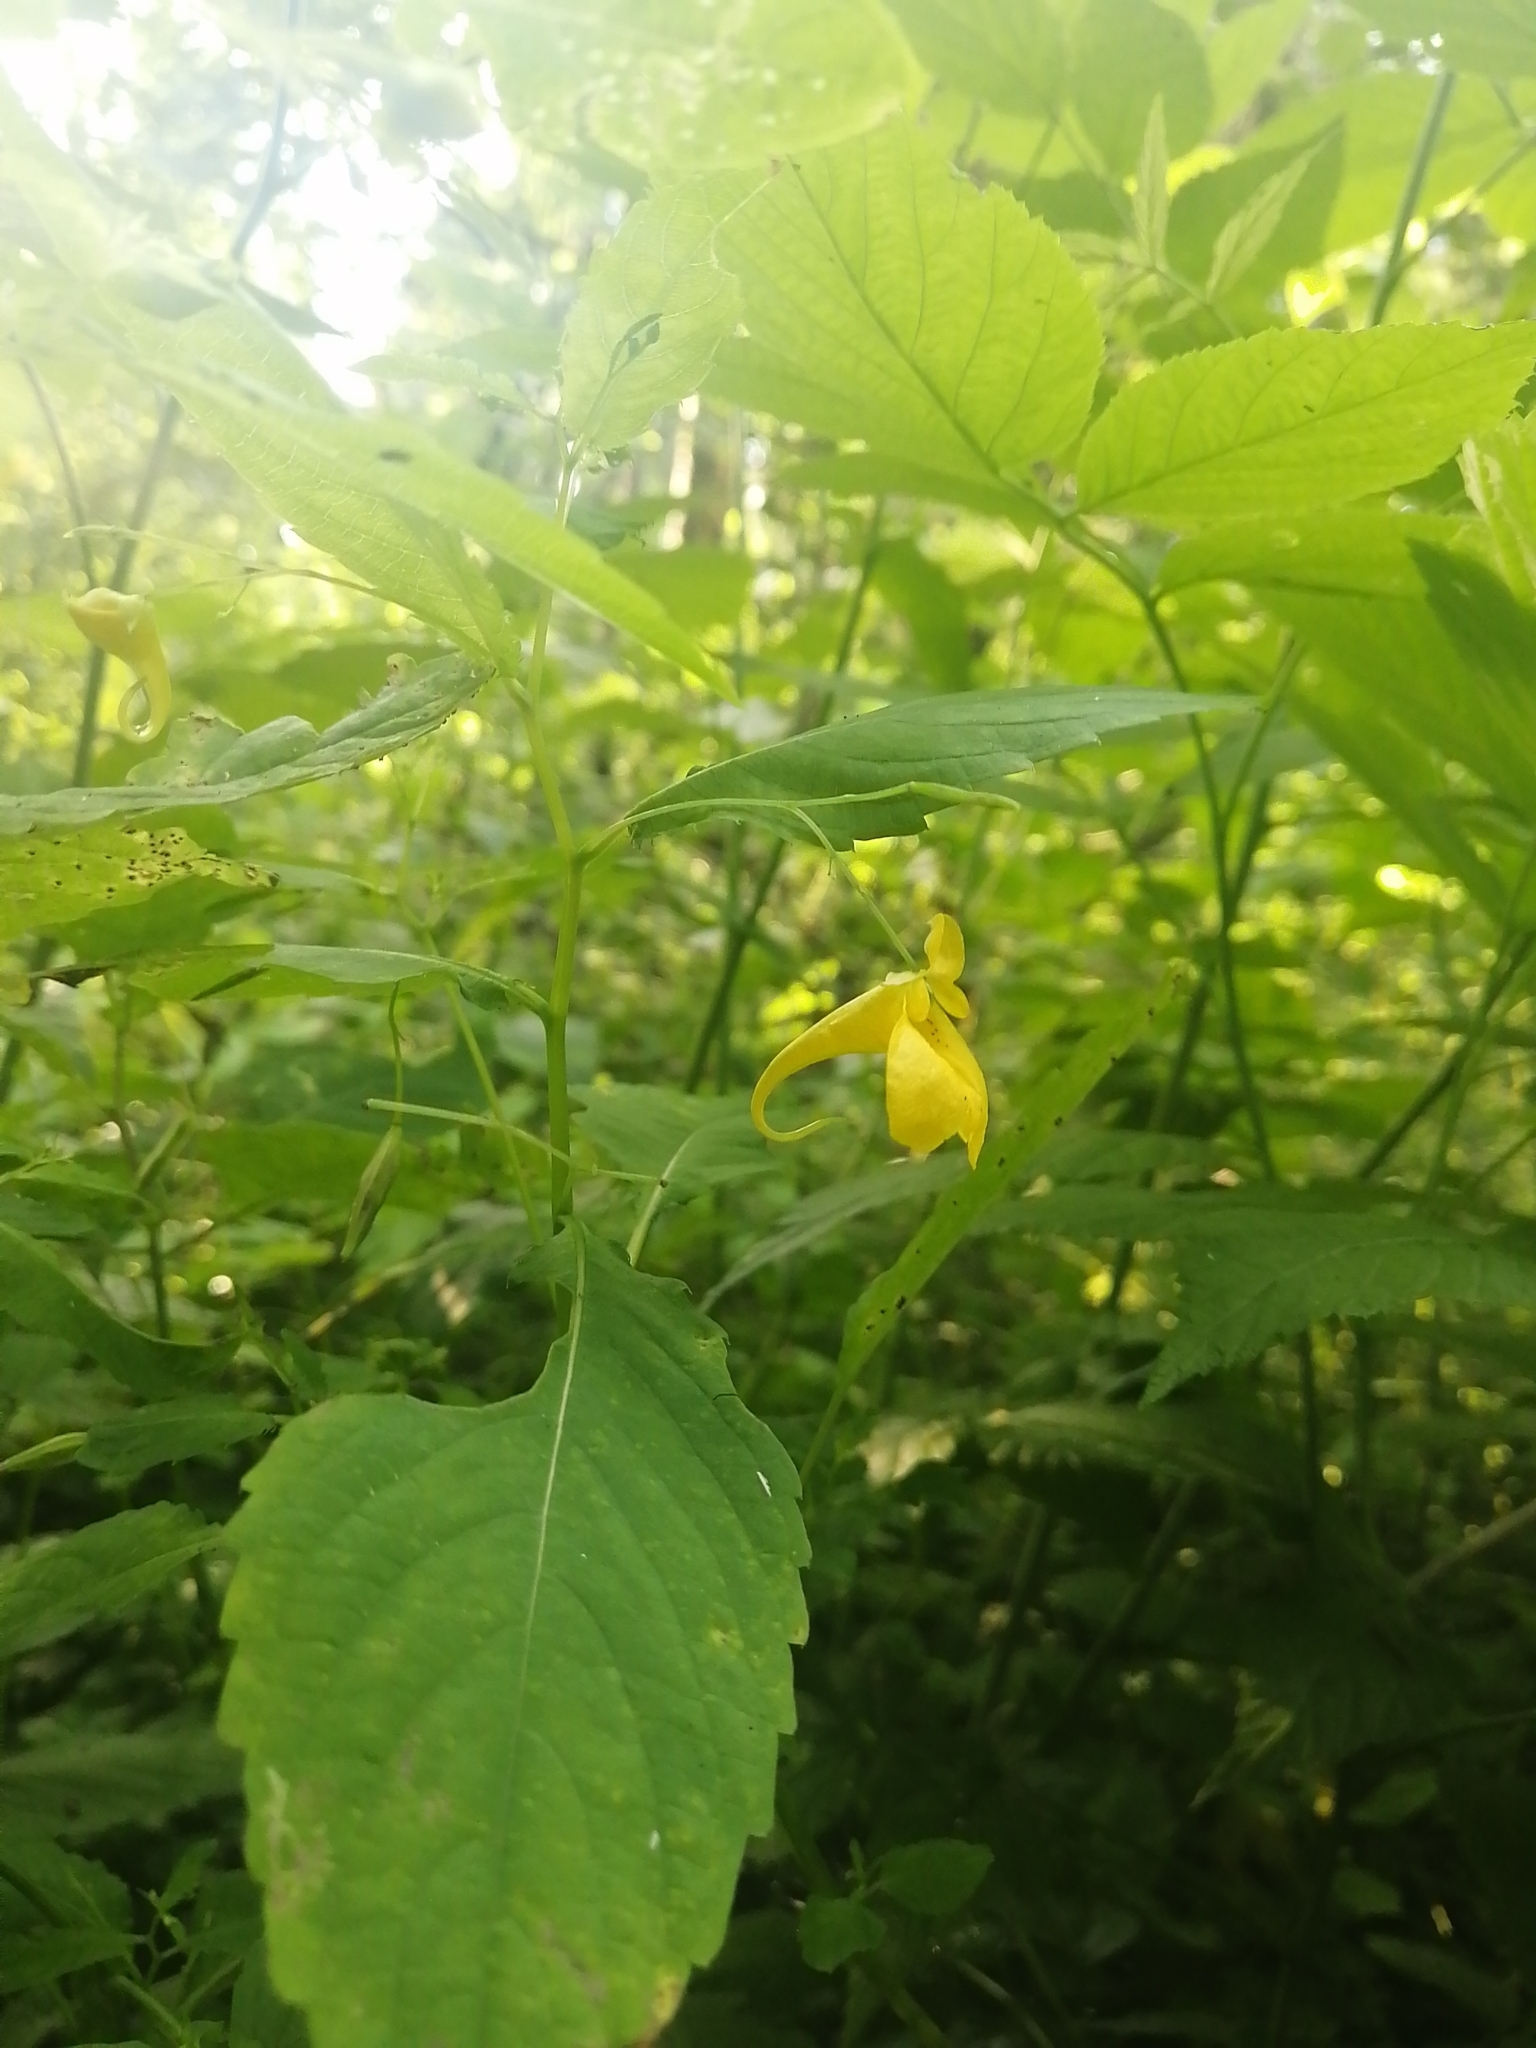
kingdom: Plantae
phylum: Tracheophyta
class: Magnoliopsida
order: Ericales
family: Balsaminaceae
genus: Impatiens
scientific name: Impatiens noli-tangere
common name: Touch-me-not balsam
